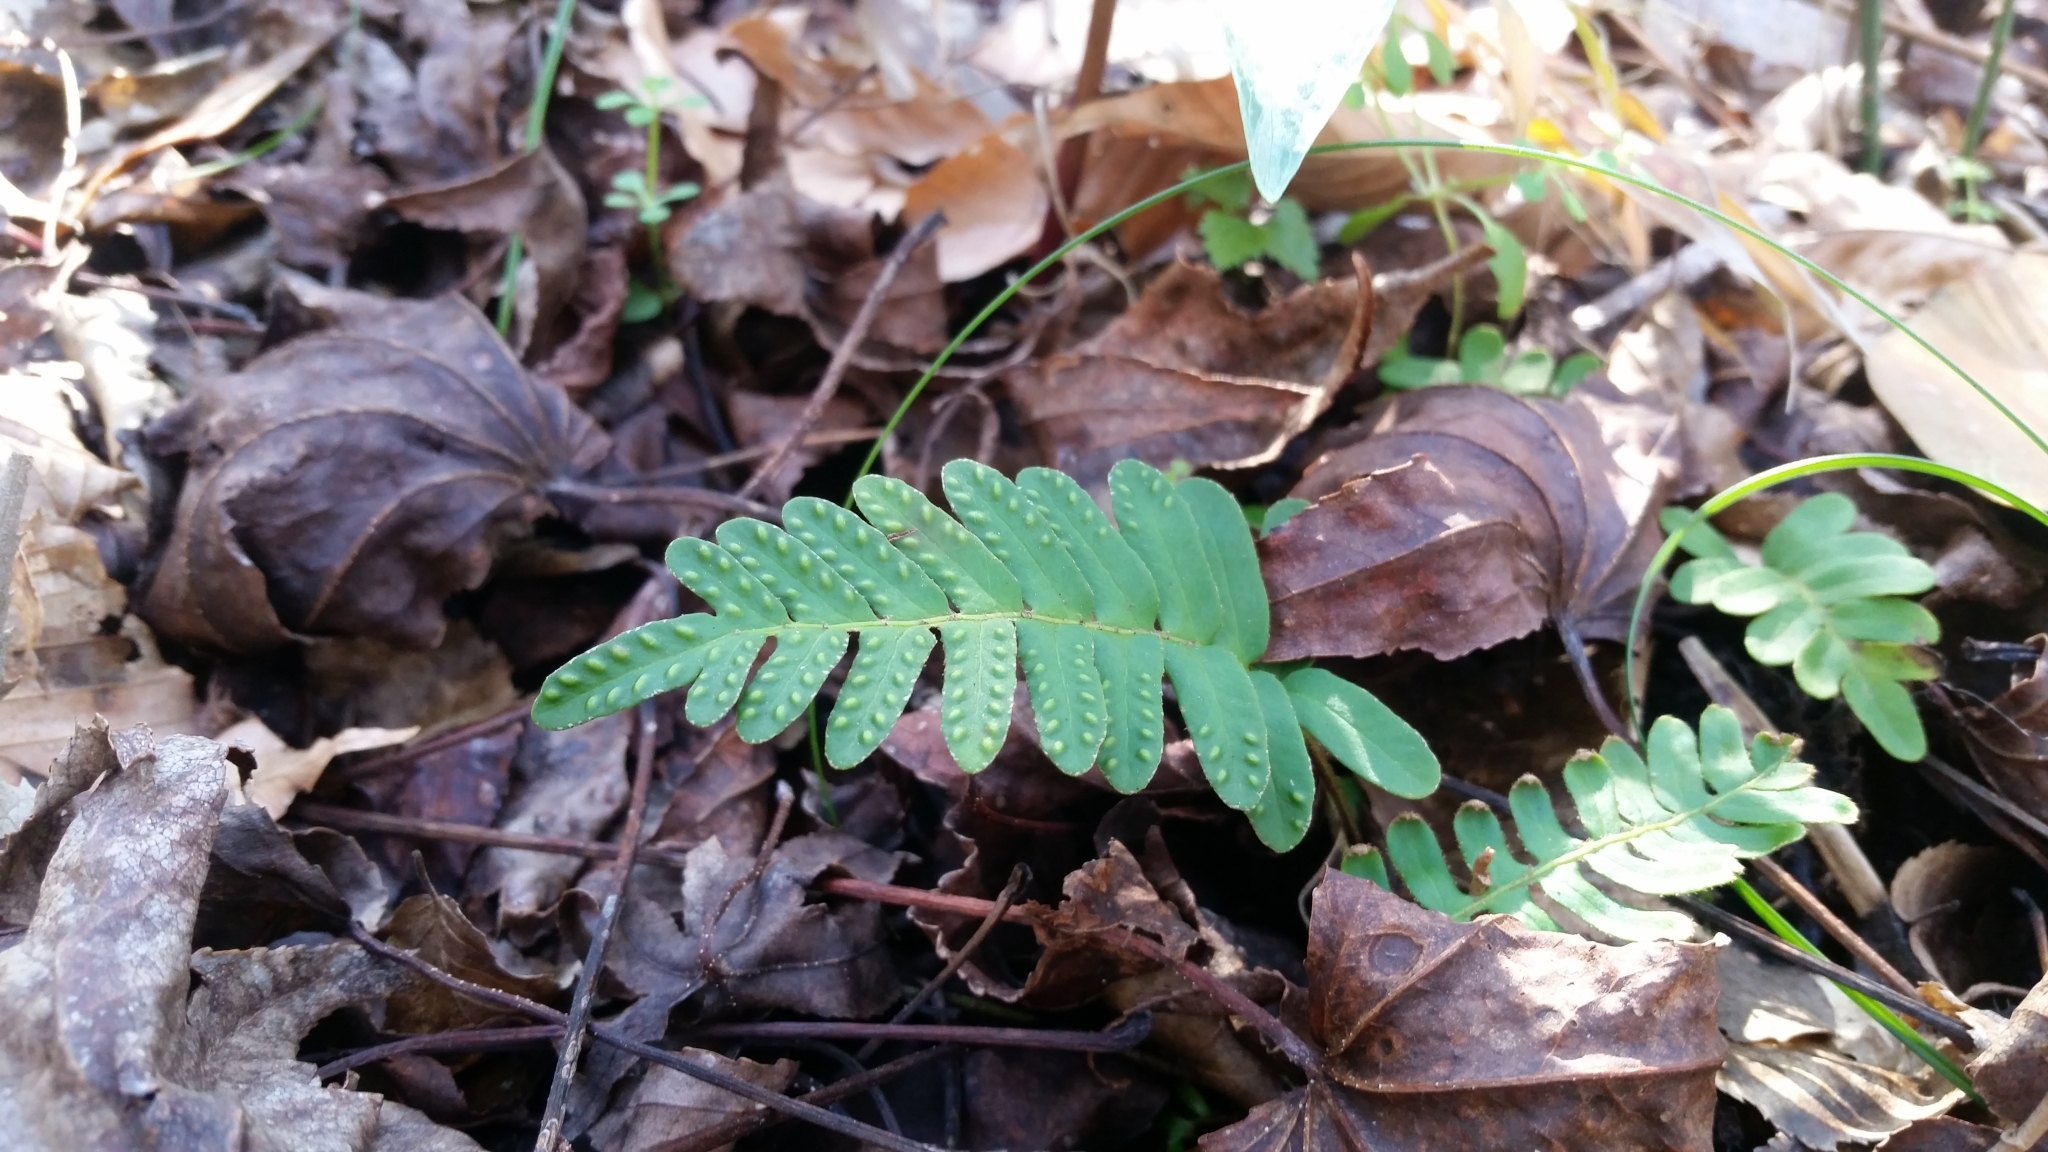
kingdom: Plantae
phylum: Tracheophyta
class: Polypodiopsida
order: Polypodiales
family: Polypodiaceae
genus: Pleopeltis
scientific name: Pleopeltis michauxiana
